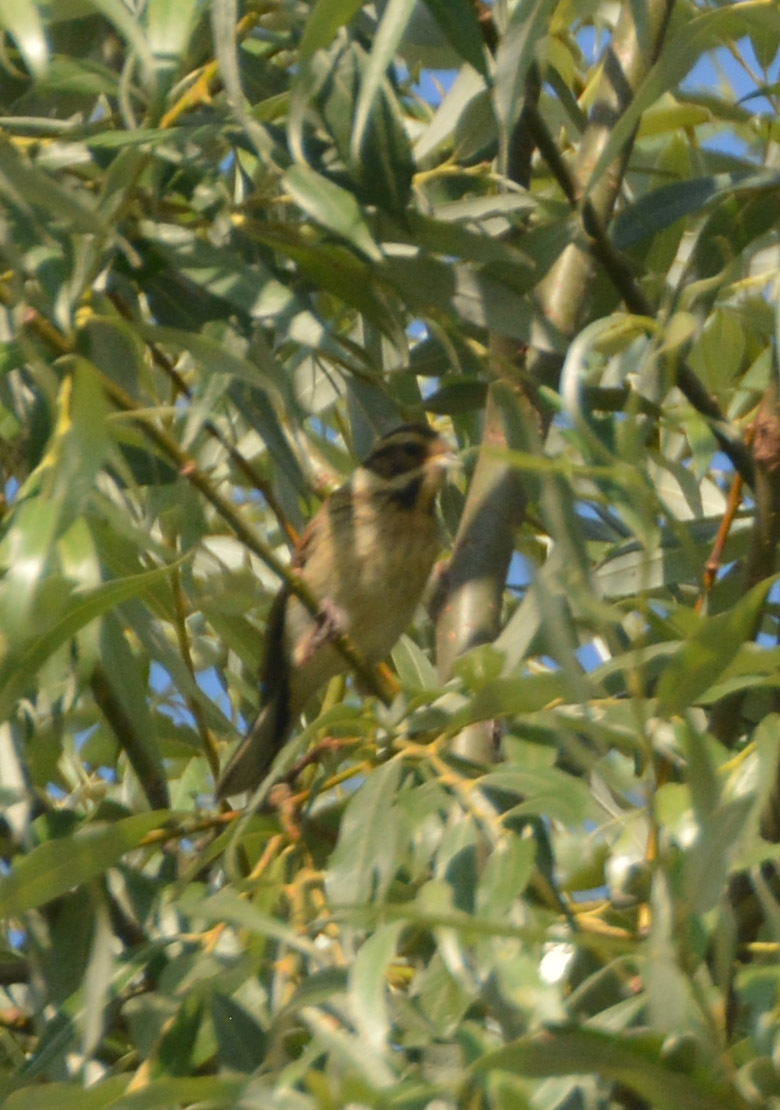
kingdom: Animalia
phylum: Chordata
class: Aves
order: Passeriformes
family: Emberizidae
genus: Emberiza
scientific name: Emberiza schoeniclus
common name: Reed bunting
